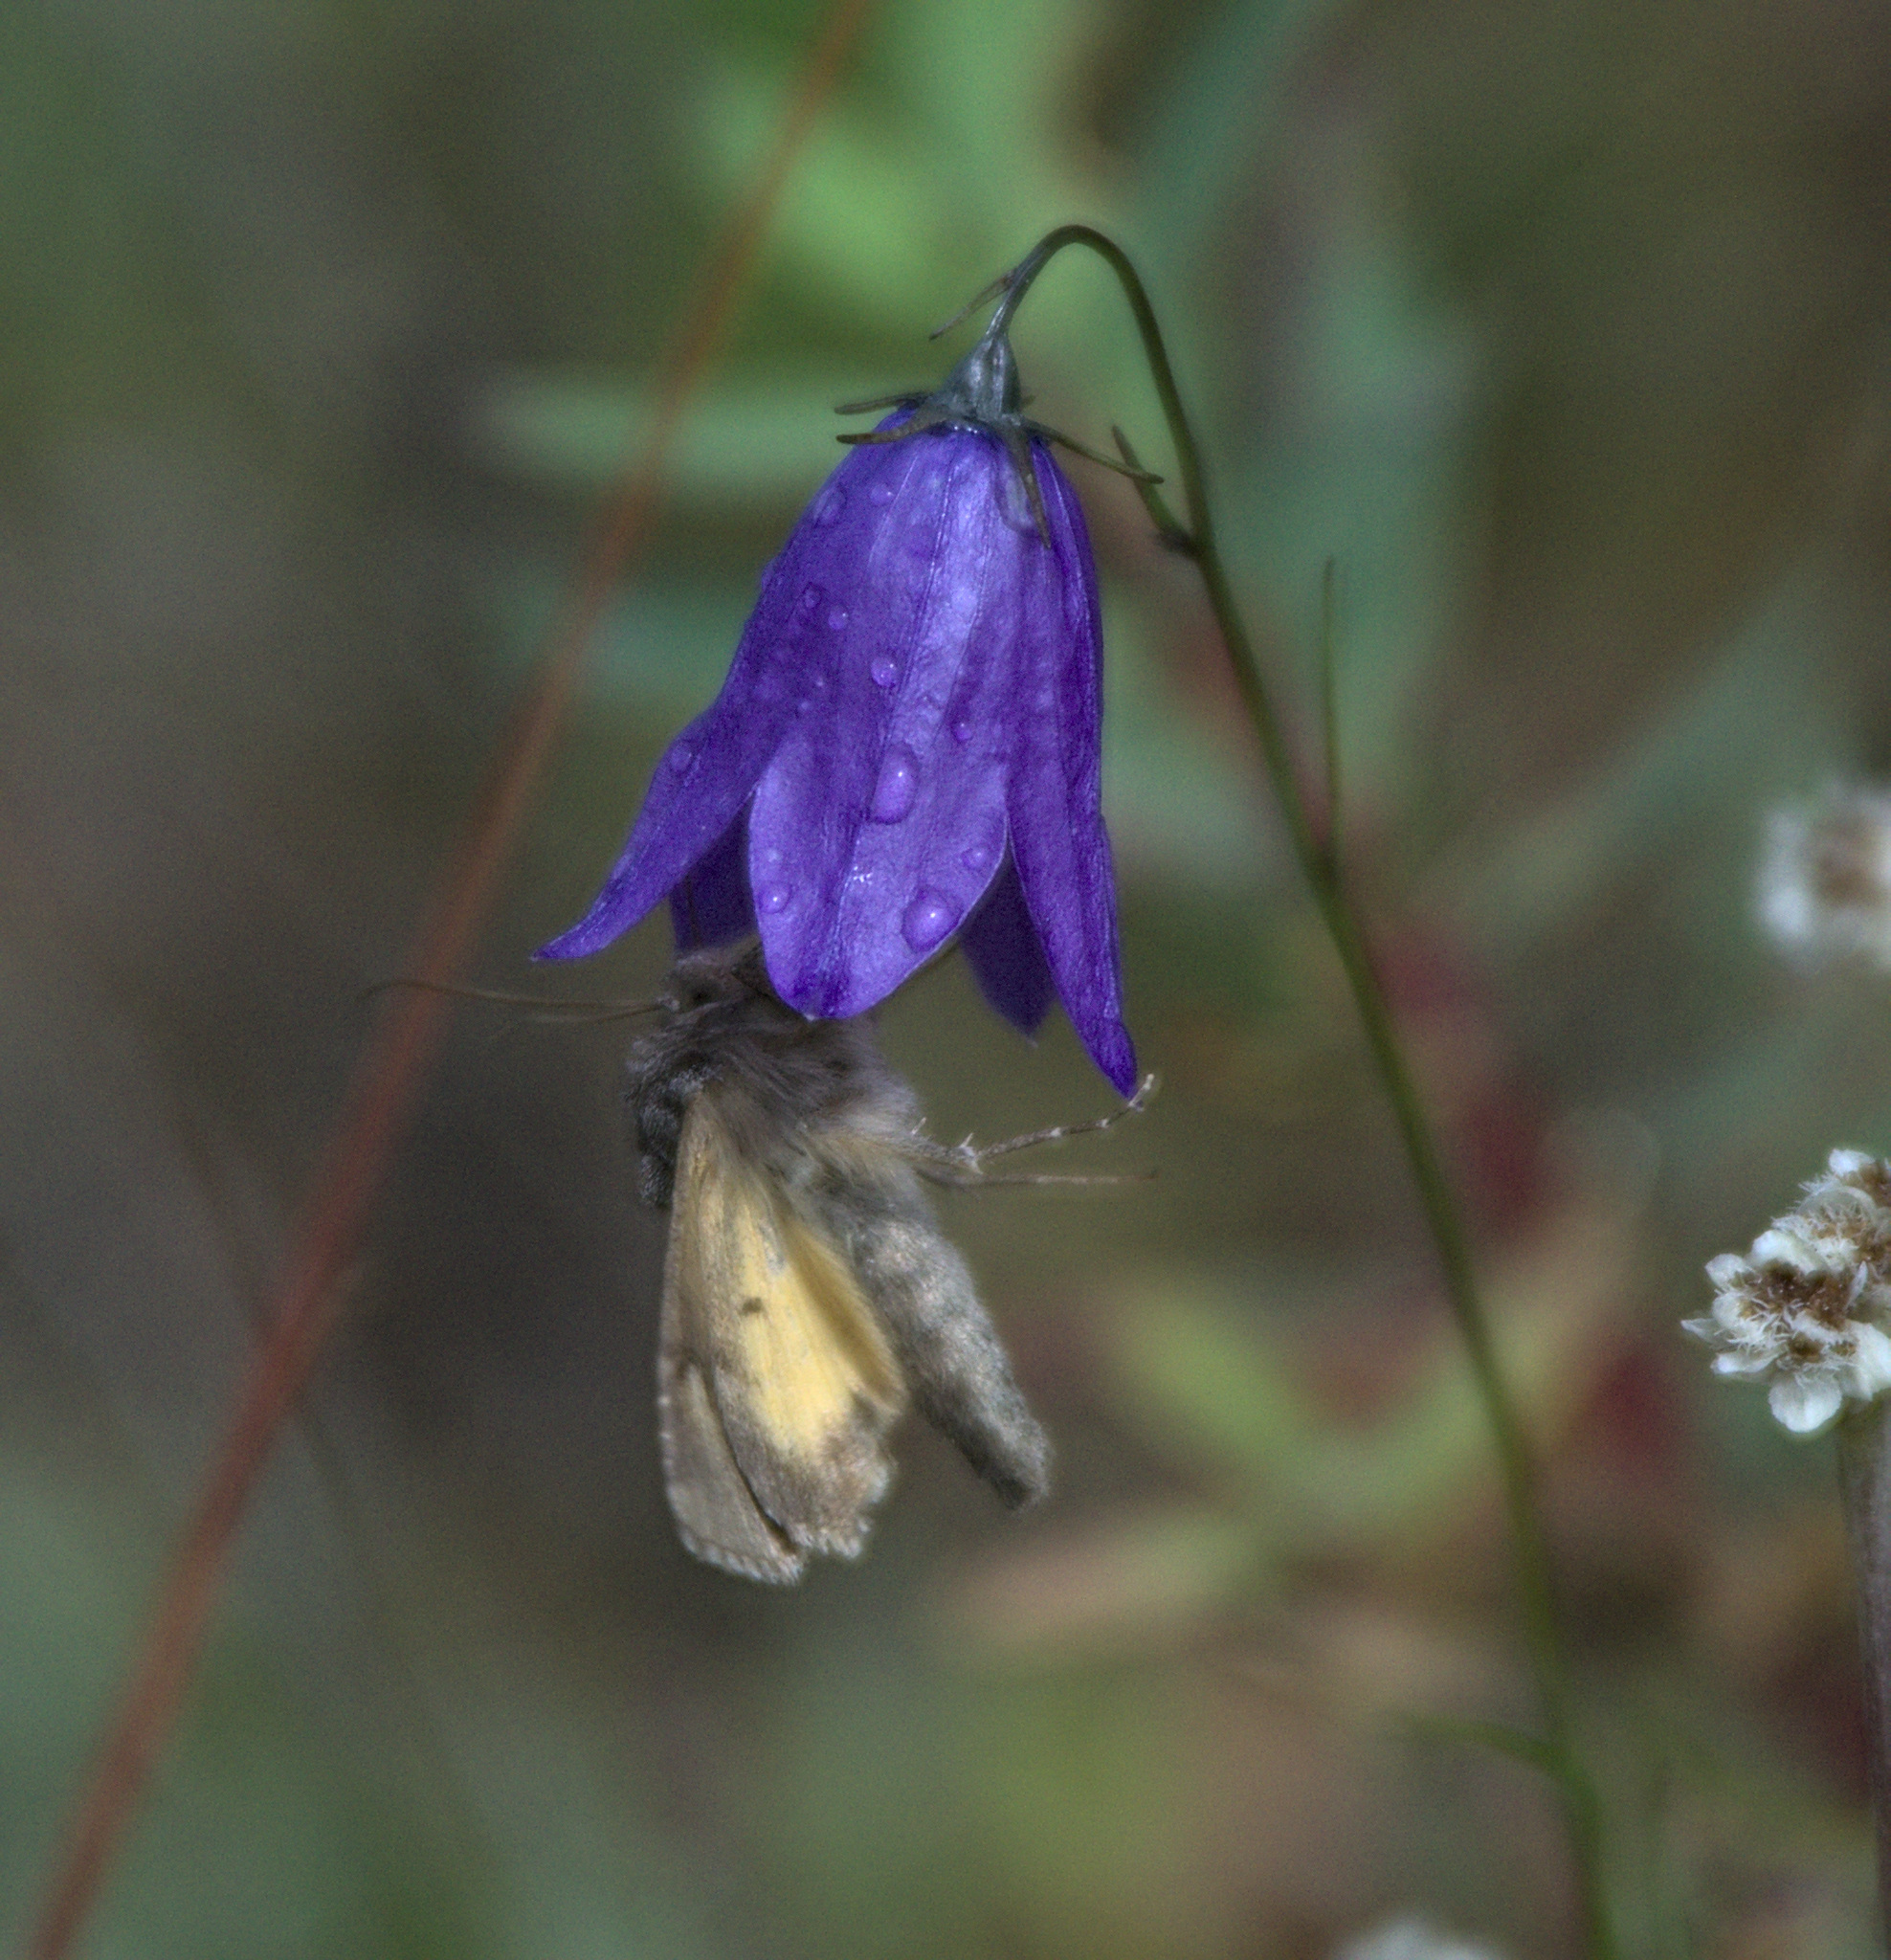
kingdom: Animalia
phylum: Arthropoda
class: Insecta
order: Lepidoptera
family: Noctuidae
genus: Syngrapha
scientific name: Syngrapha ain
